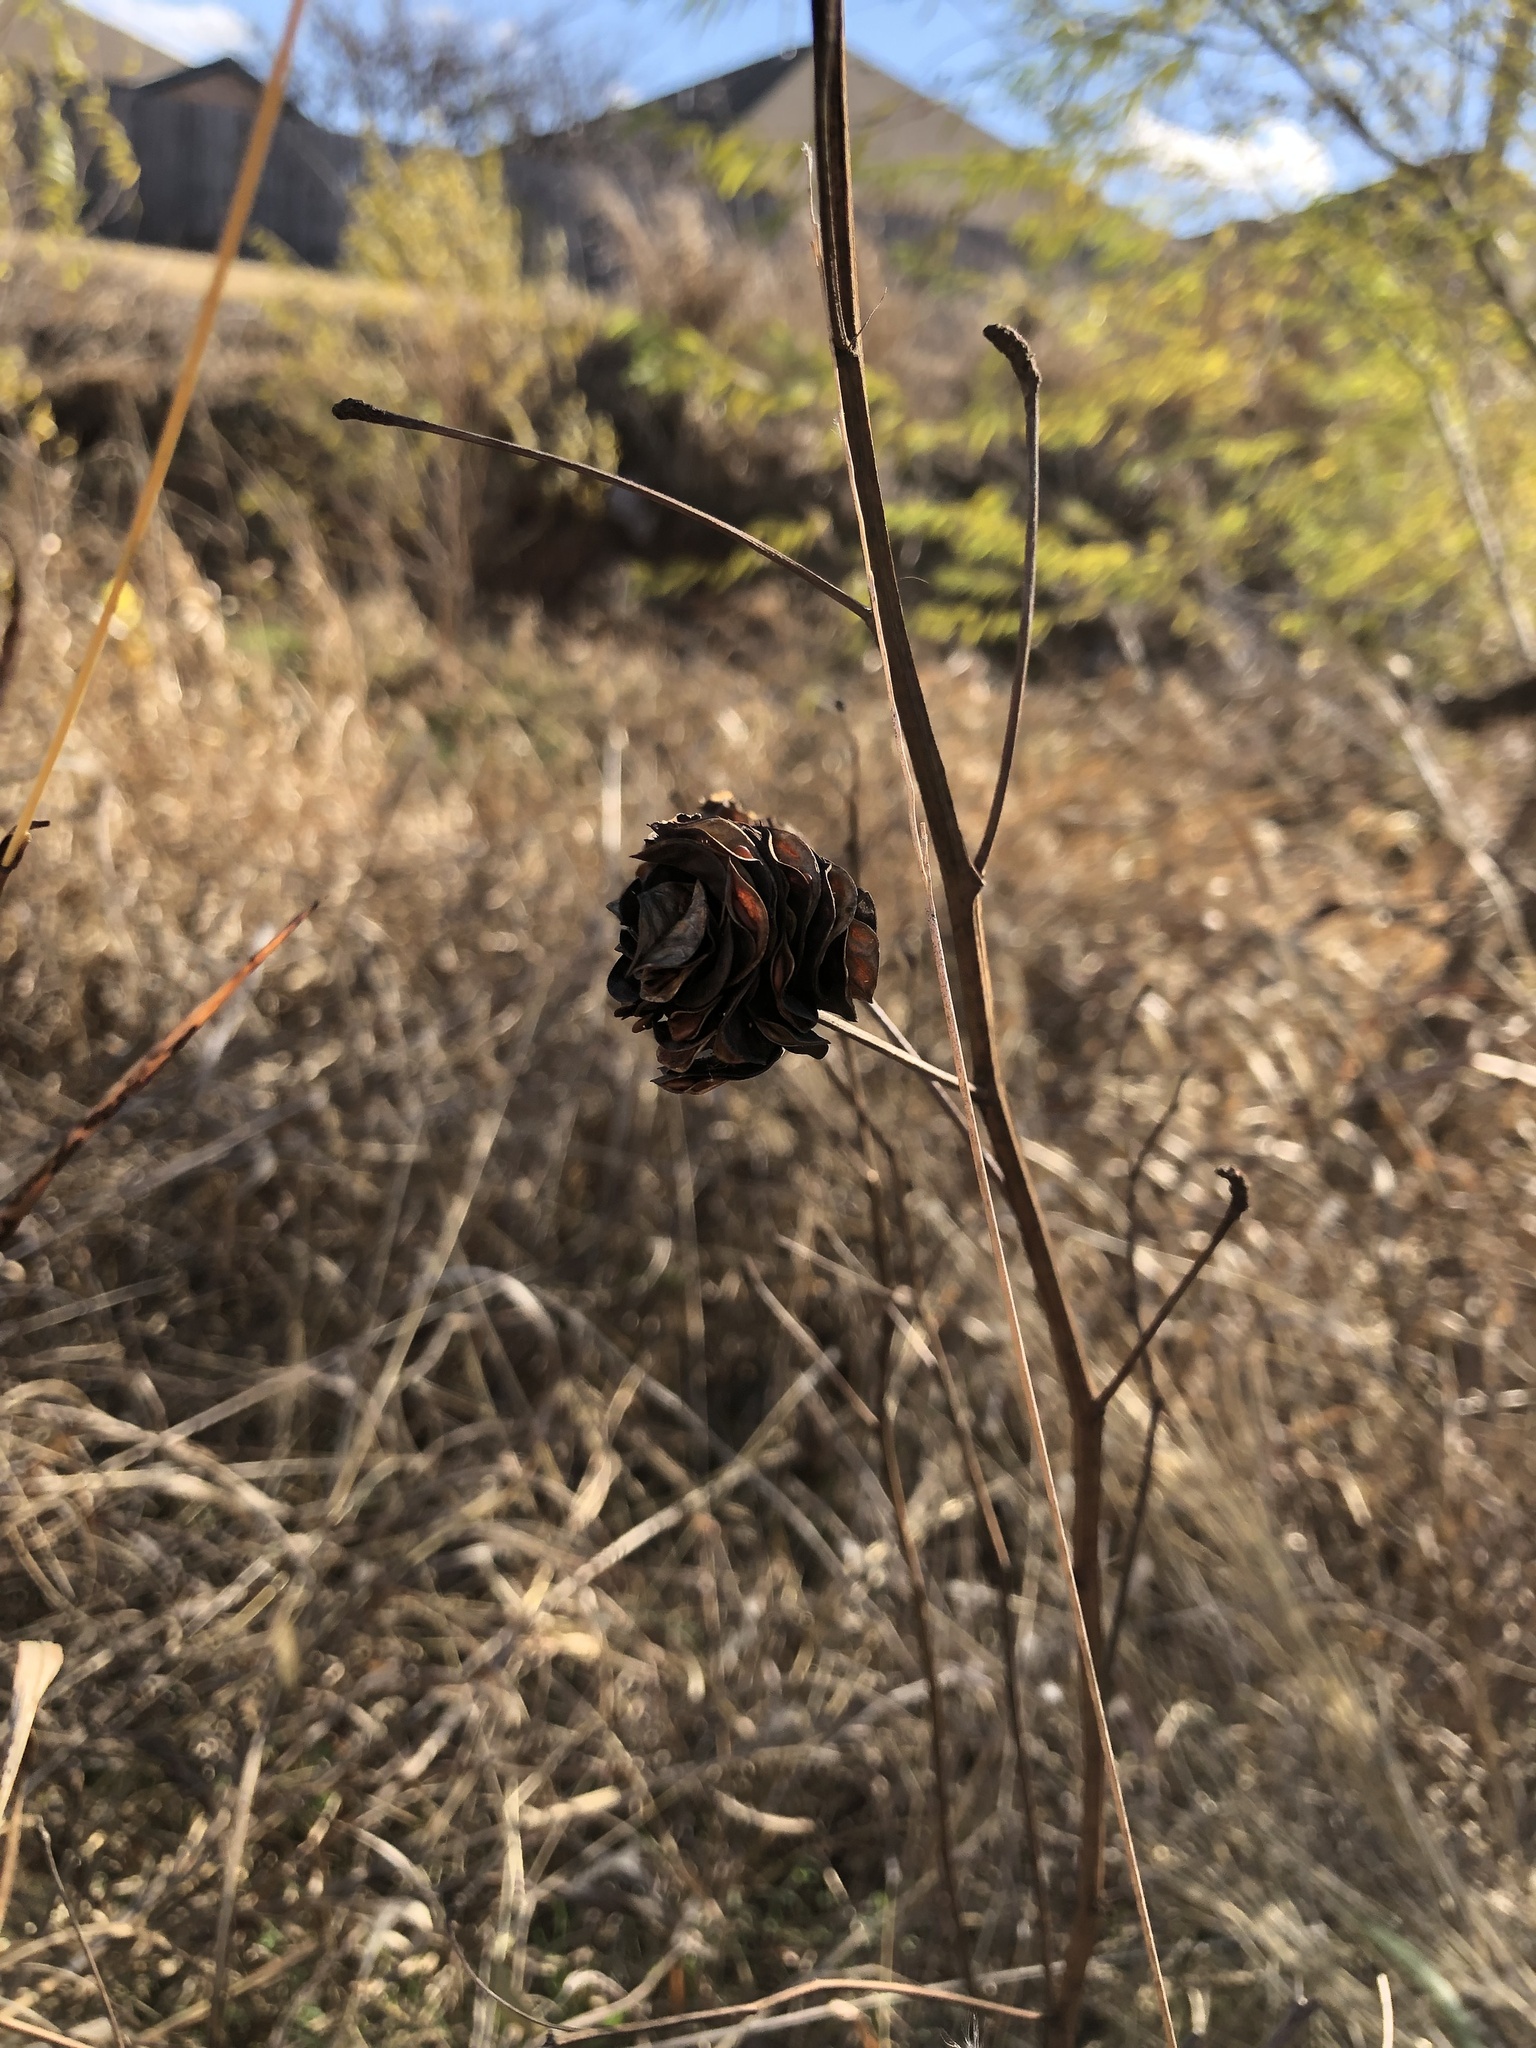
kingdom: Plantae
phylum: Tracheophyta
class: Magnoliopsida
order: Fabales
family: Fabaceae
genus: Desmanthus
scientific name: Desmanthus illinoensis
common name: Illinois bundle-flower
